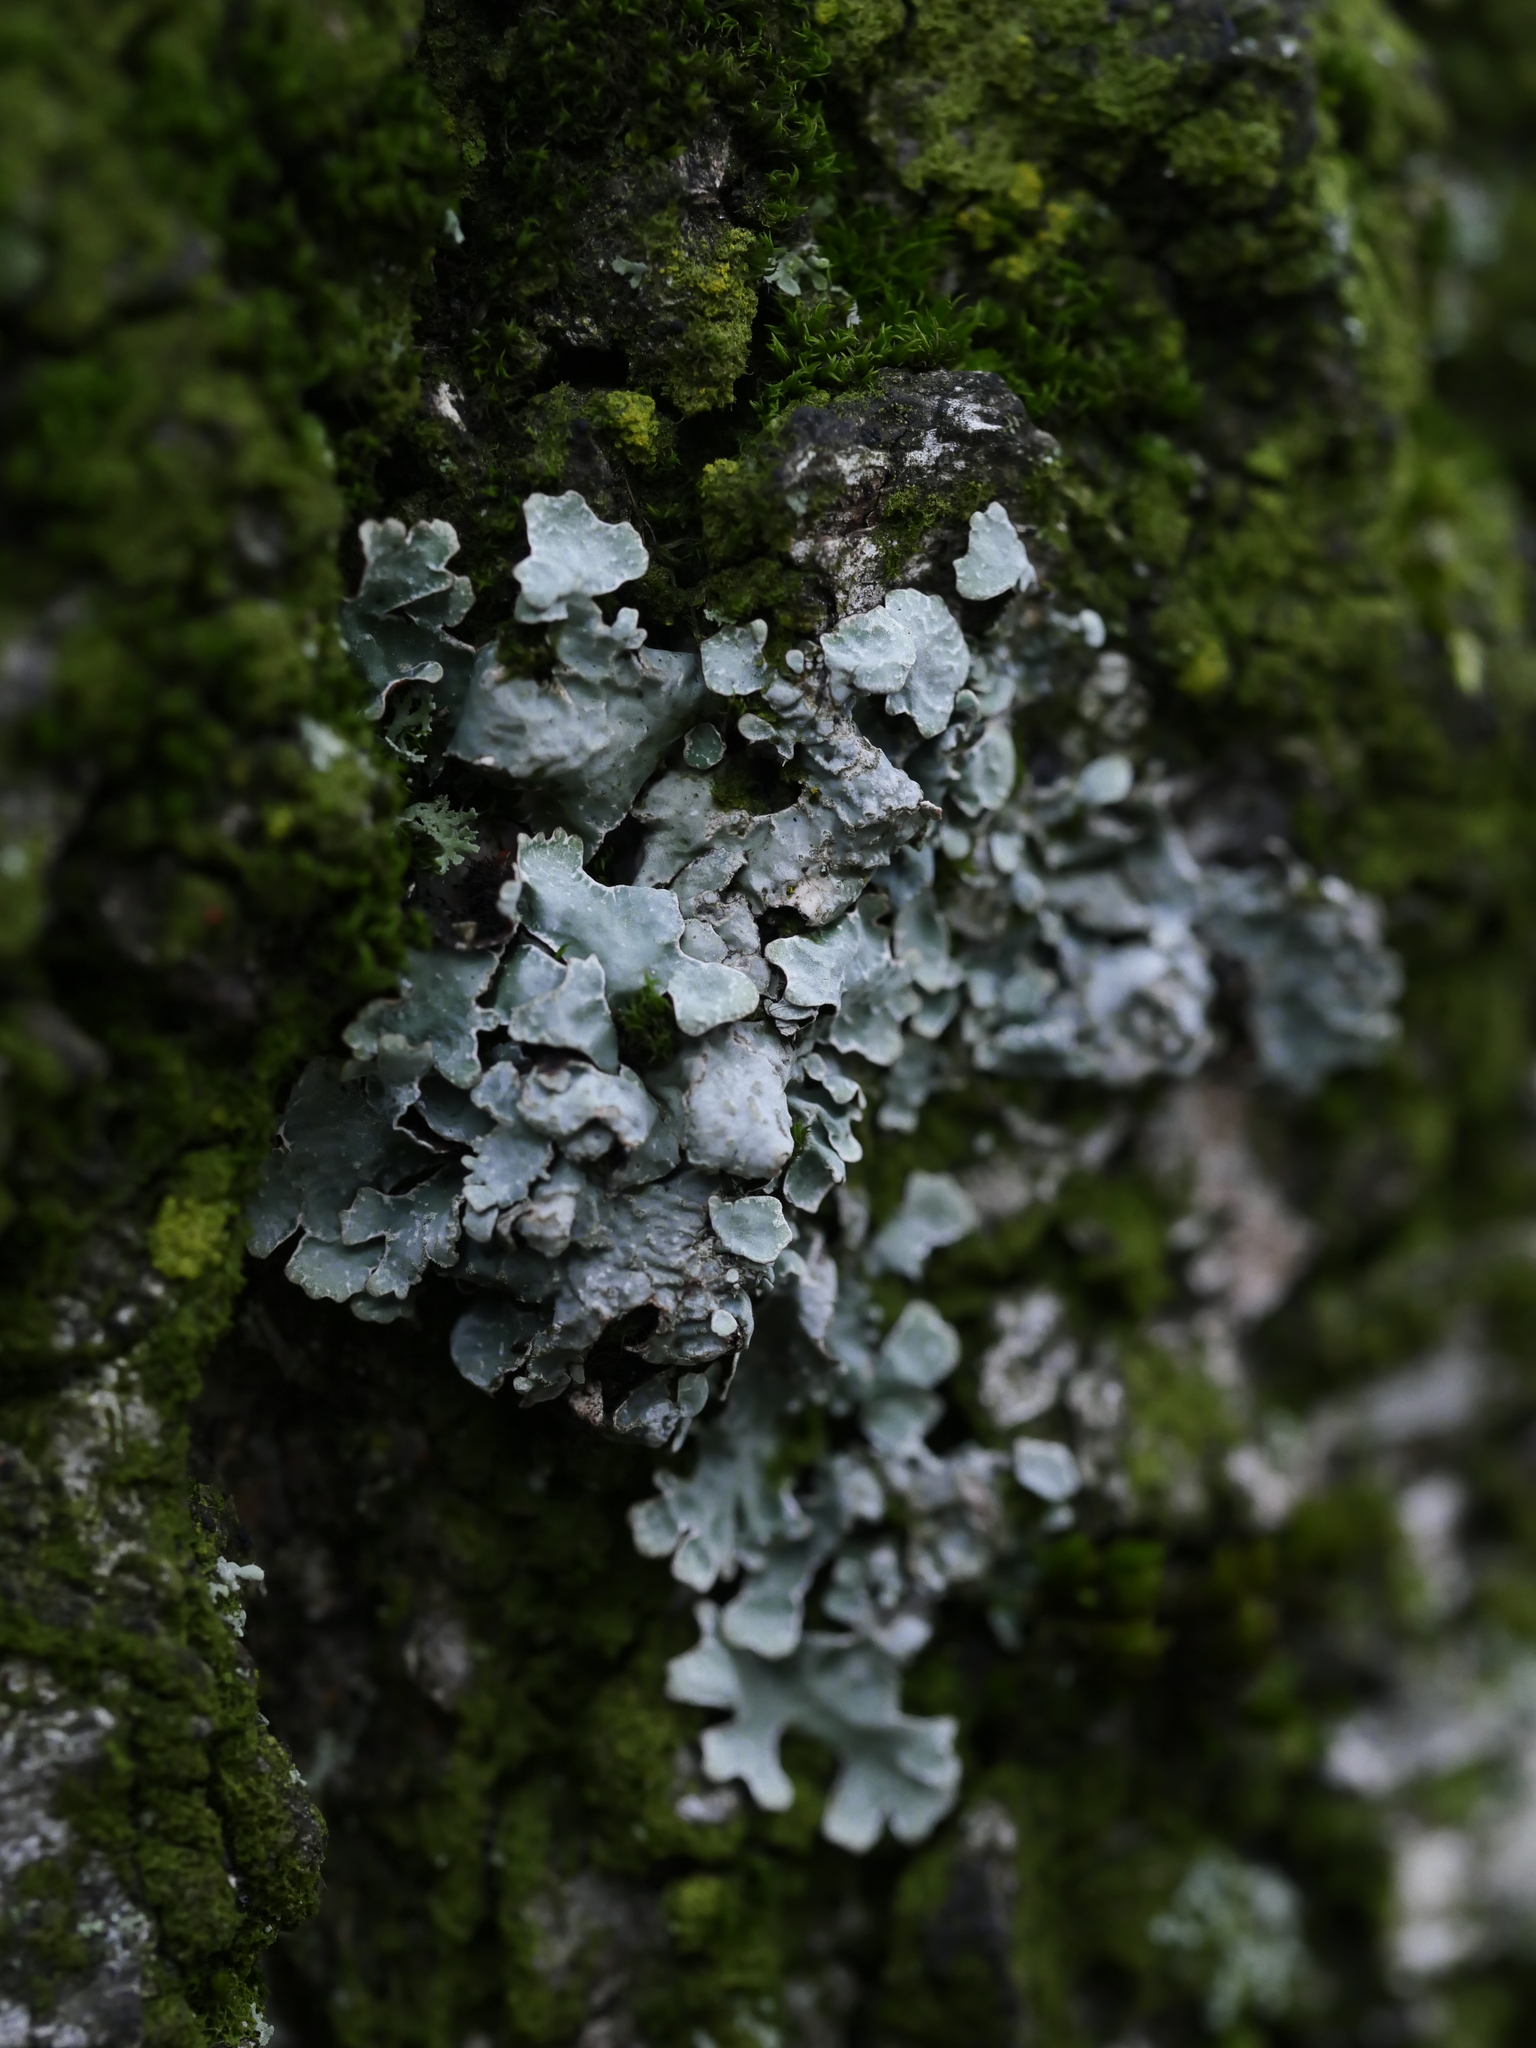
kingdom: Fungi
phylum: Ascomycota
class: Lecanoromycetes
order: Lecanorales
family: Parmeliaceae
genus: Parmelia
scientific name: Parmelia sulcata
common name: Netted shield lichen
